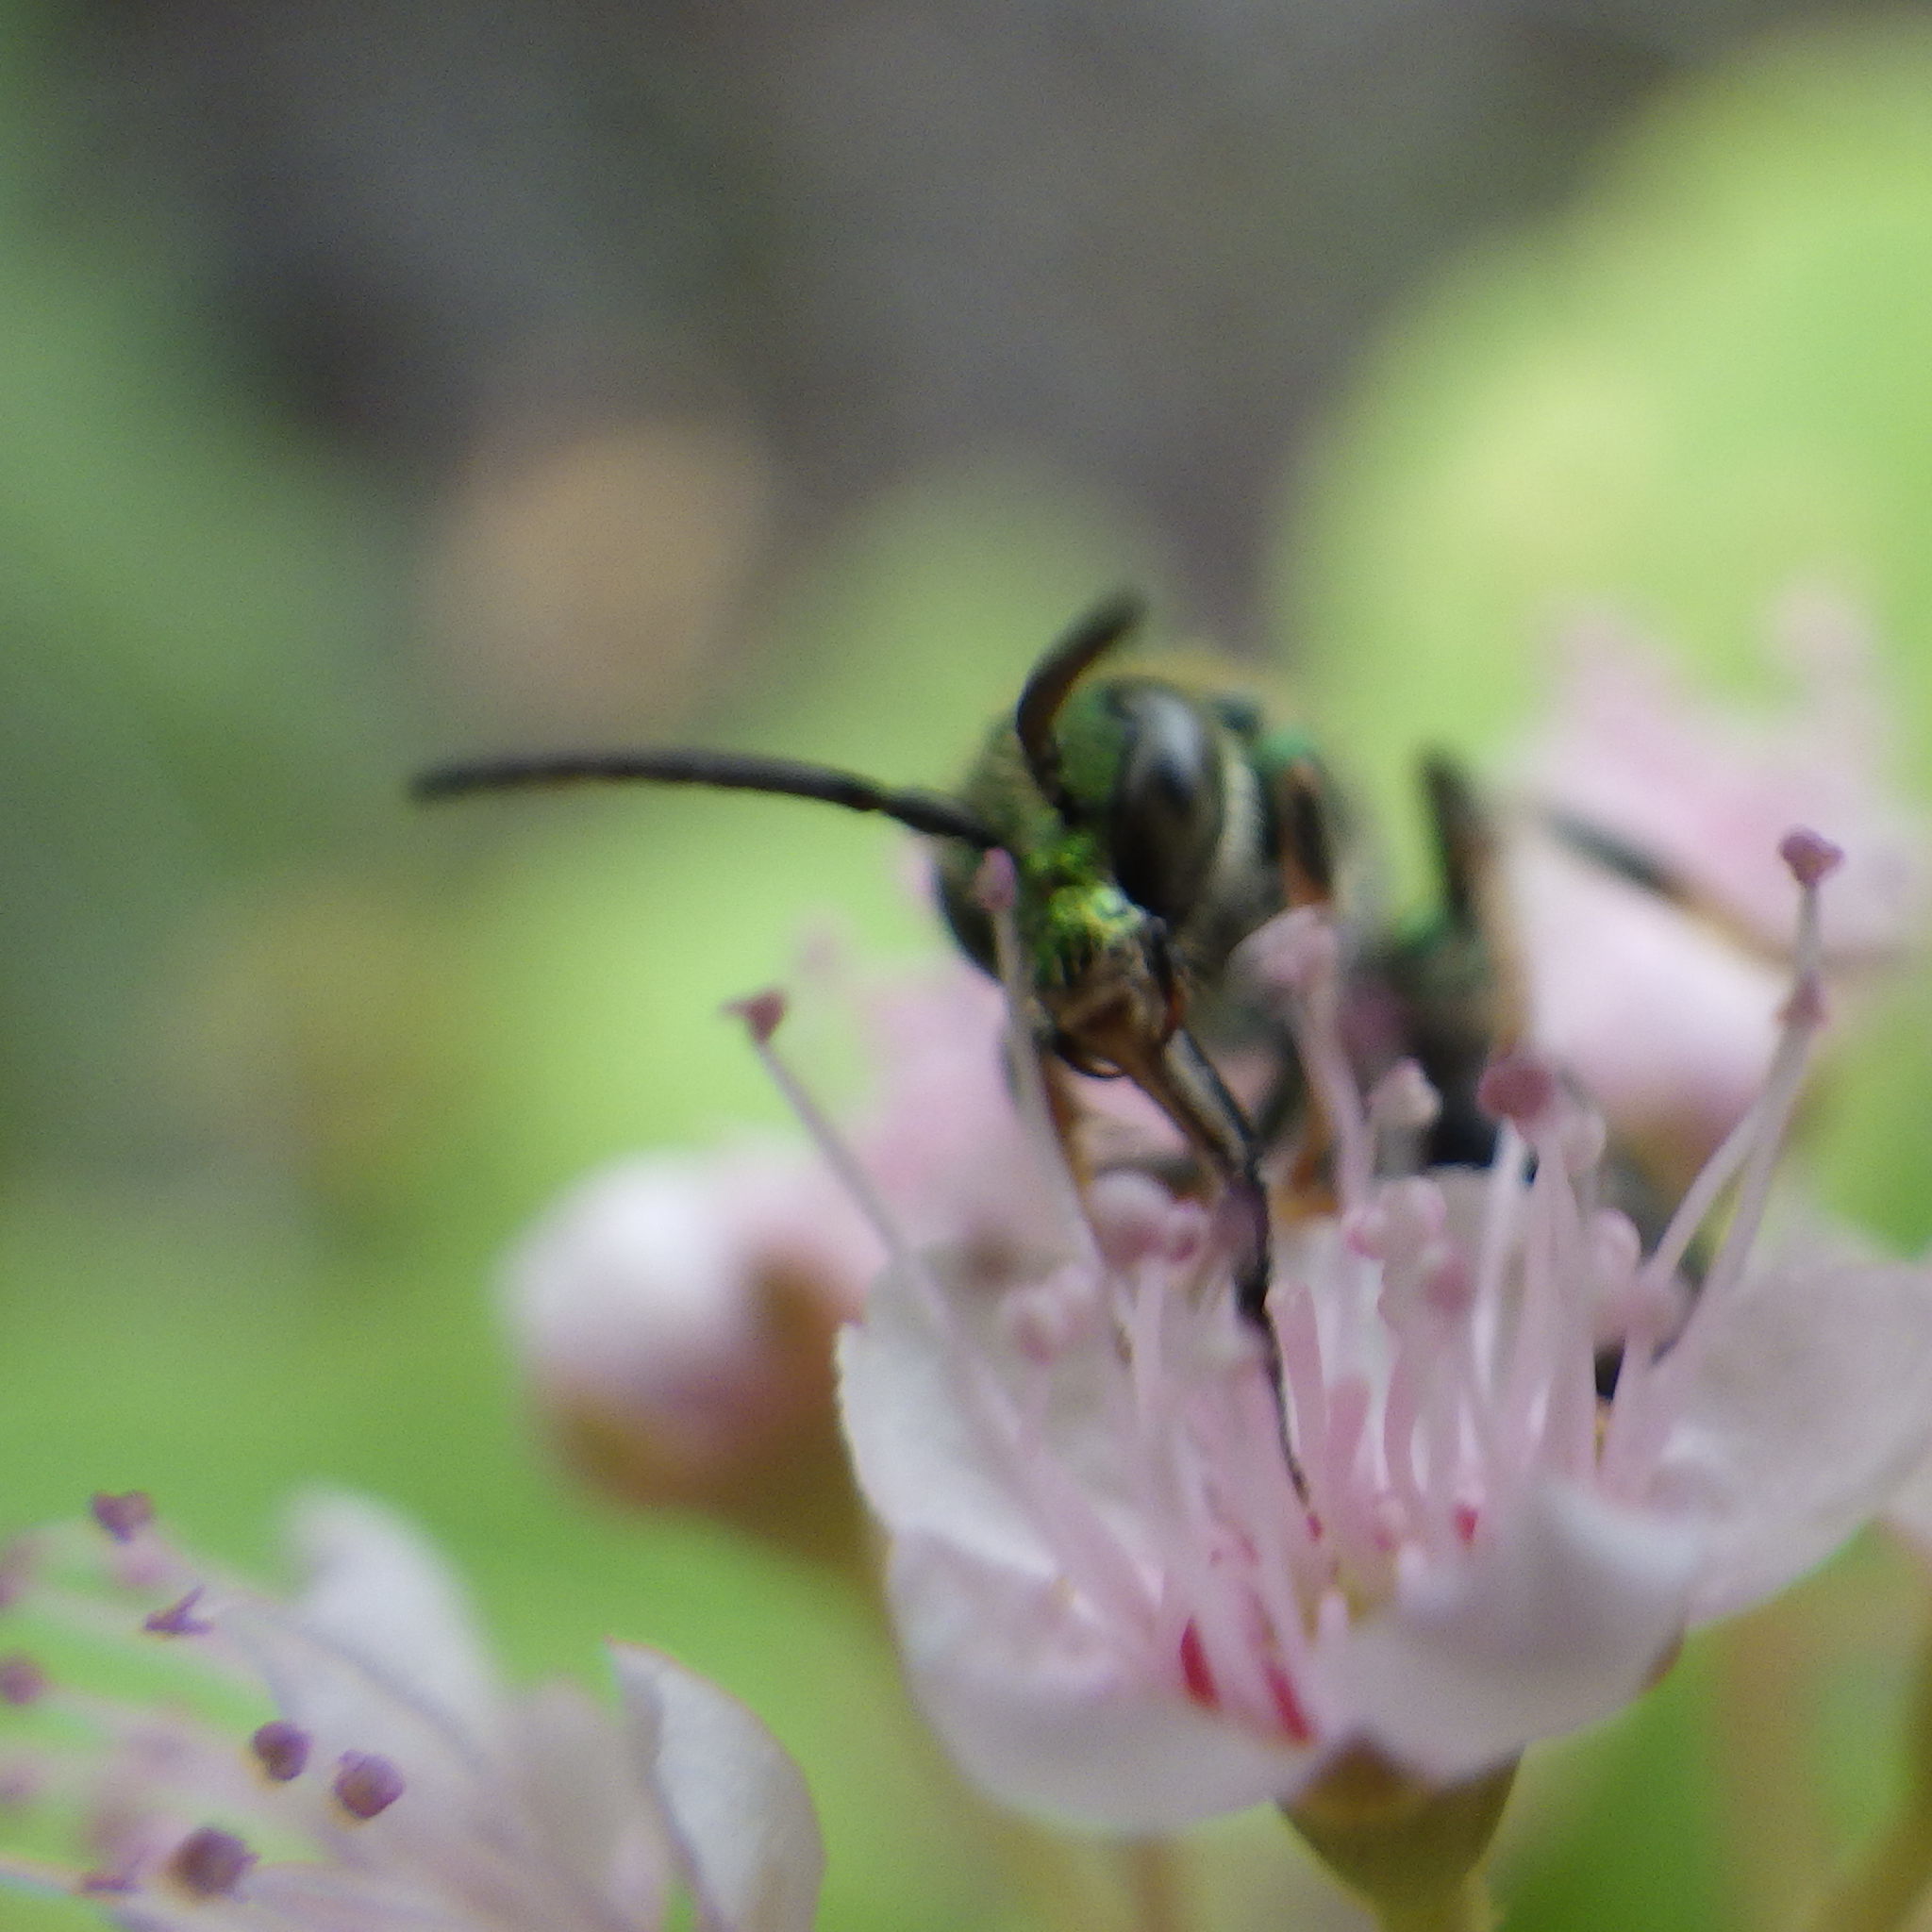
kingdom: Animalia
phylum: Arthropoda
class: Insecta
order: Hymenoptera
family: Halictidae
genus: Augochlorella
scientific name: Augochlorella aurata
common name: Golden sweat bee
